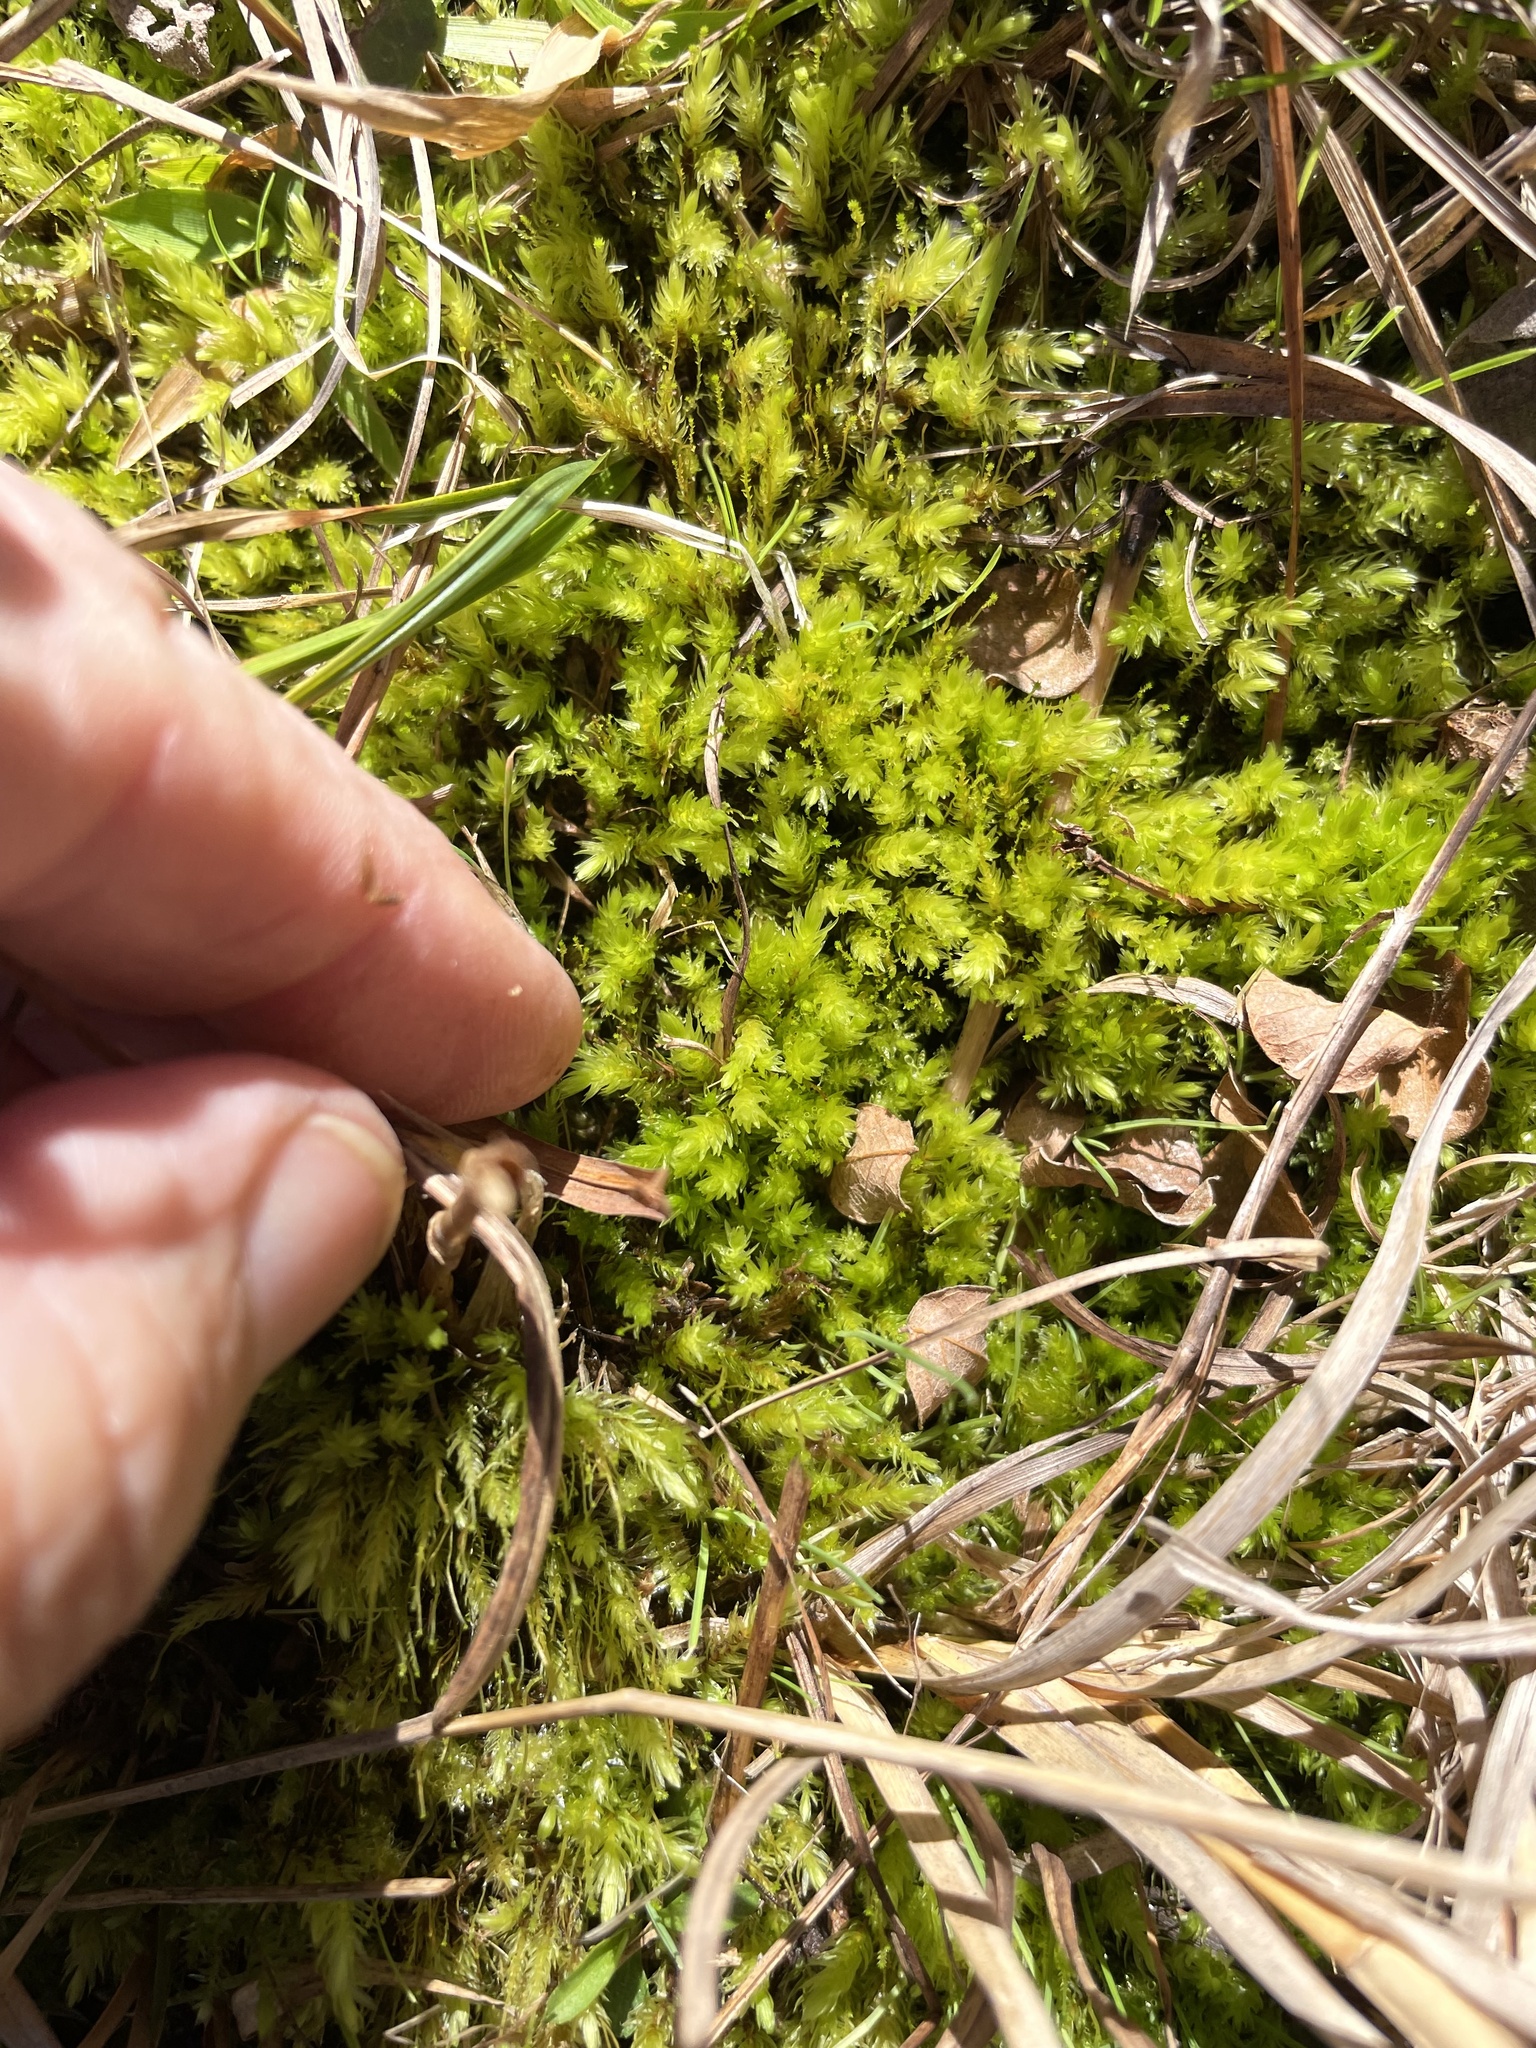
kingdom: Plantae
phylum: Bryophyta
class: Bryopsida
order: Aulacomniales
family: Aulacomniaceae
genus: Aulacomnium
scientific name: Aulacomnium palustre
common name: Bog groove-moss
